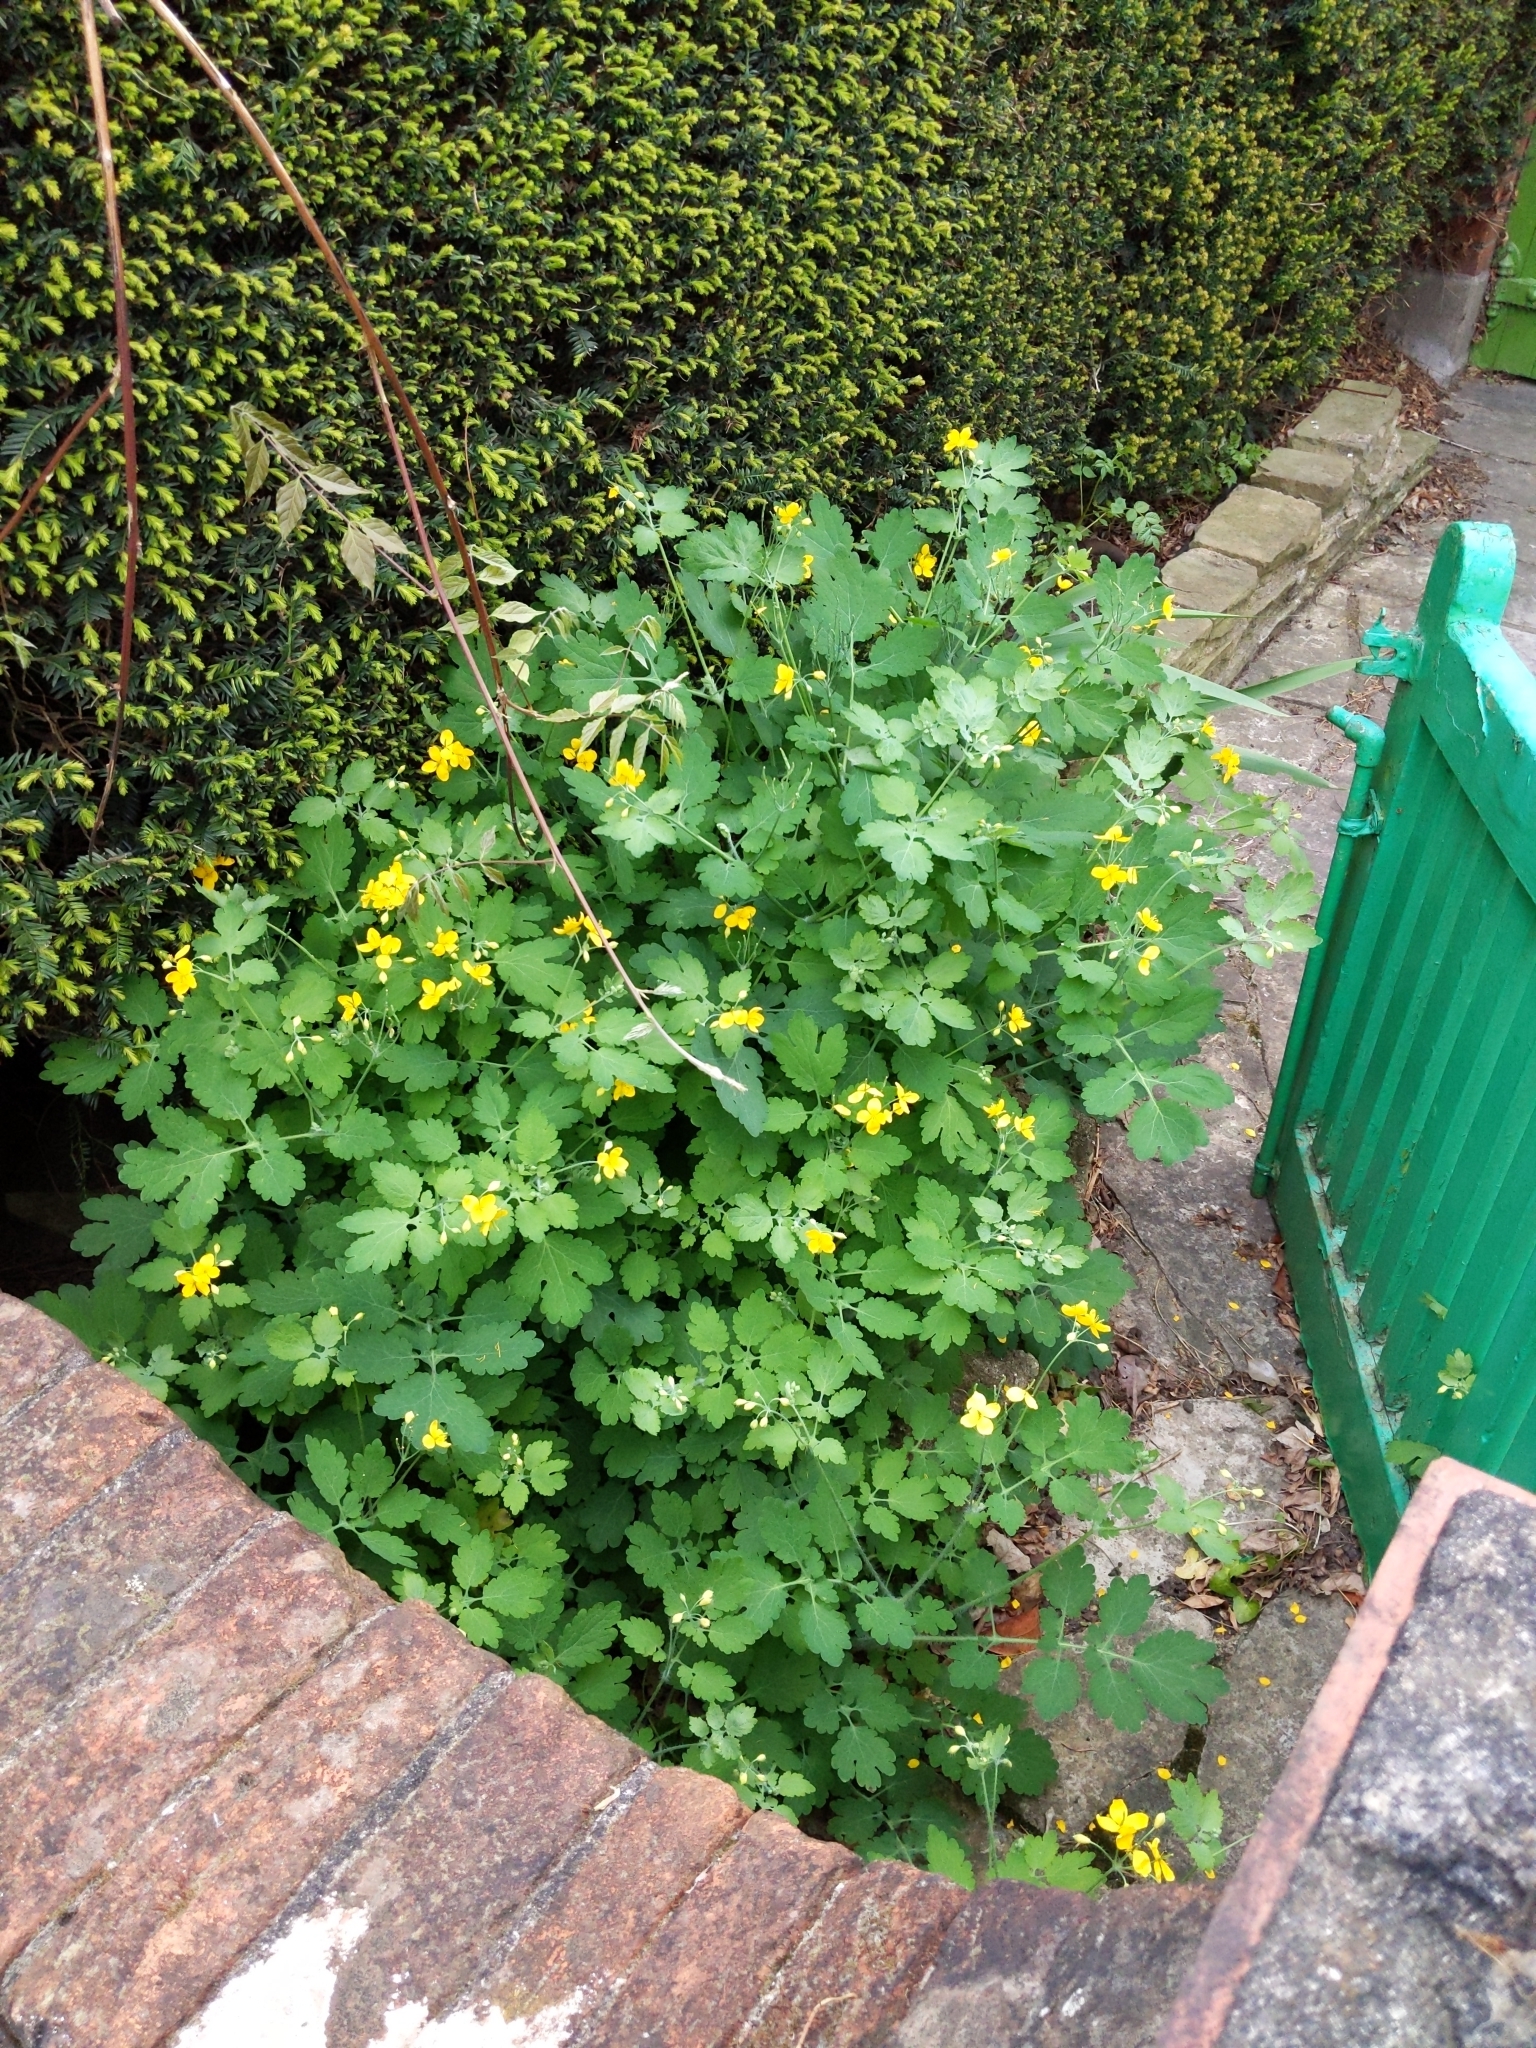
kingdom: Plantae
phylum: Tracheophyta
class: Magnoliopsida
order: Ranunculales
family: Papaveraceae
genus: Chelidonium
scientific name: Chelidonium majus
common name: Greater celandine
